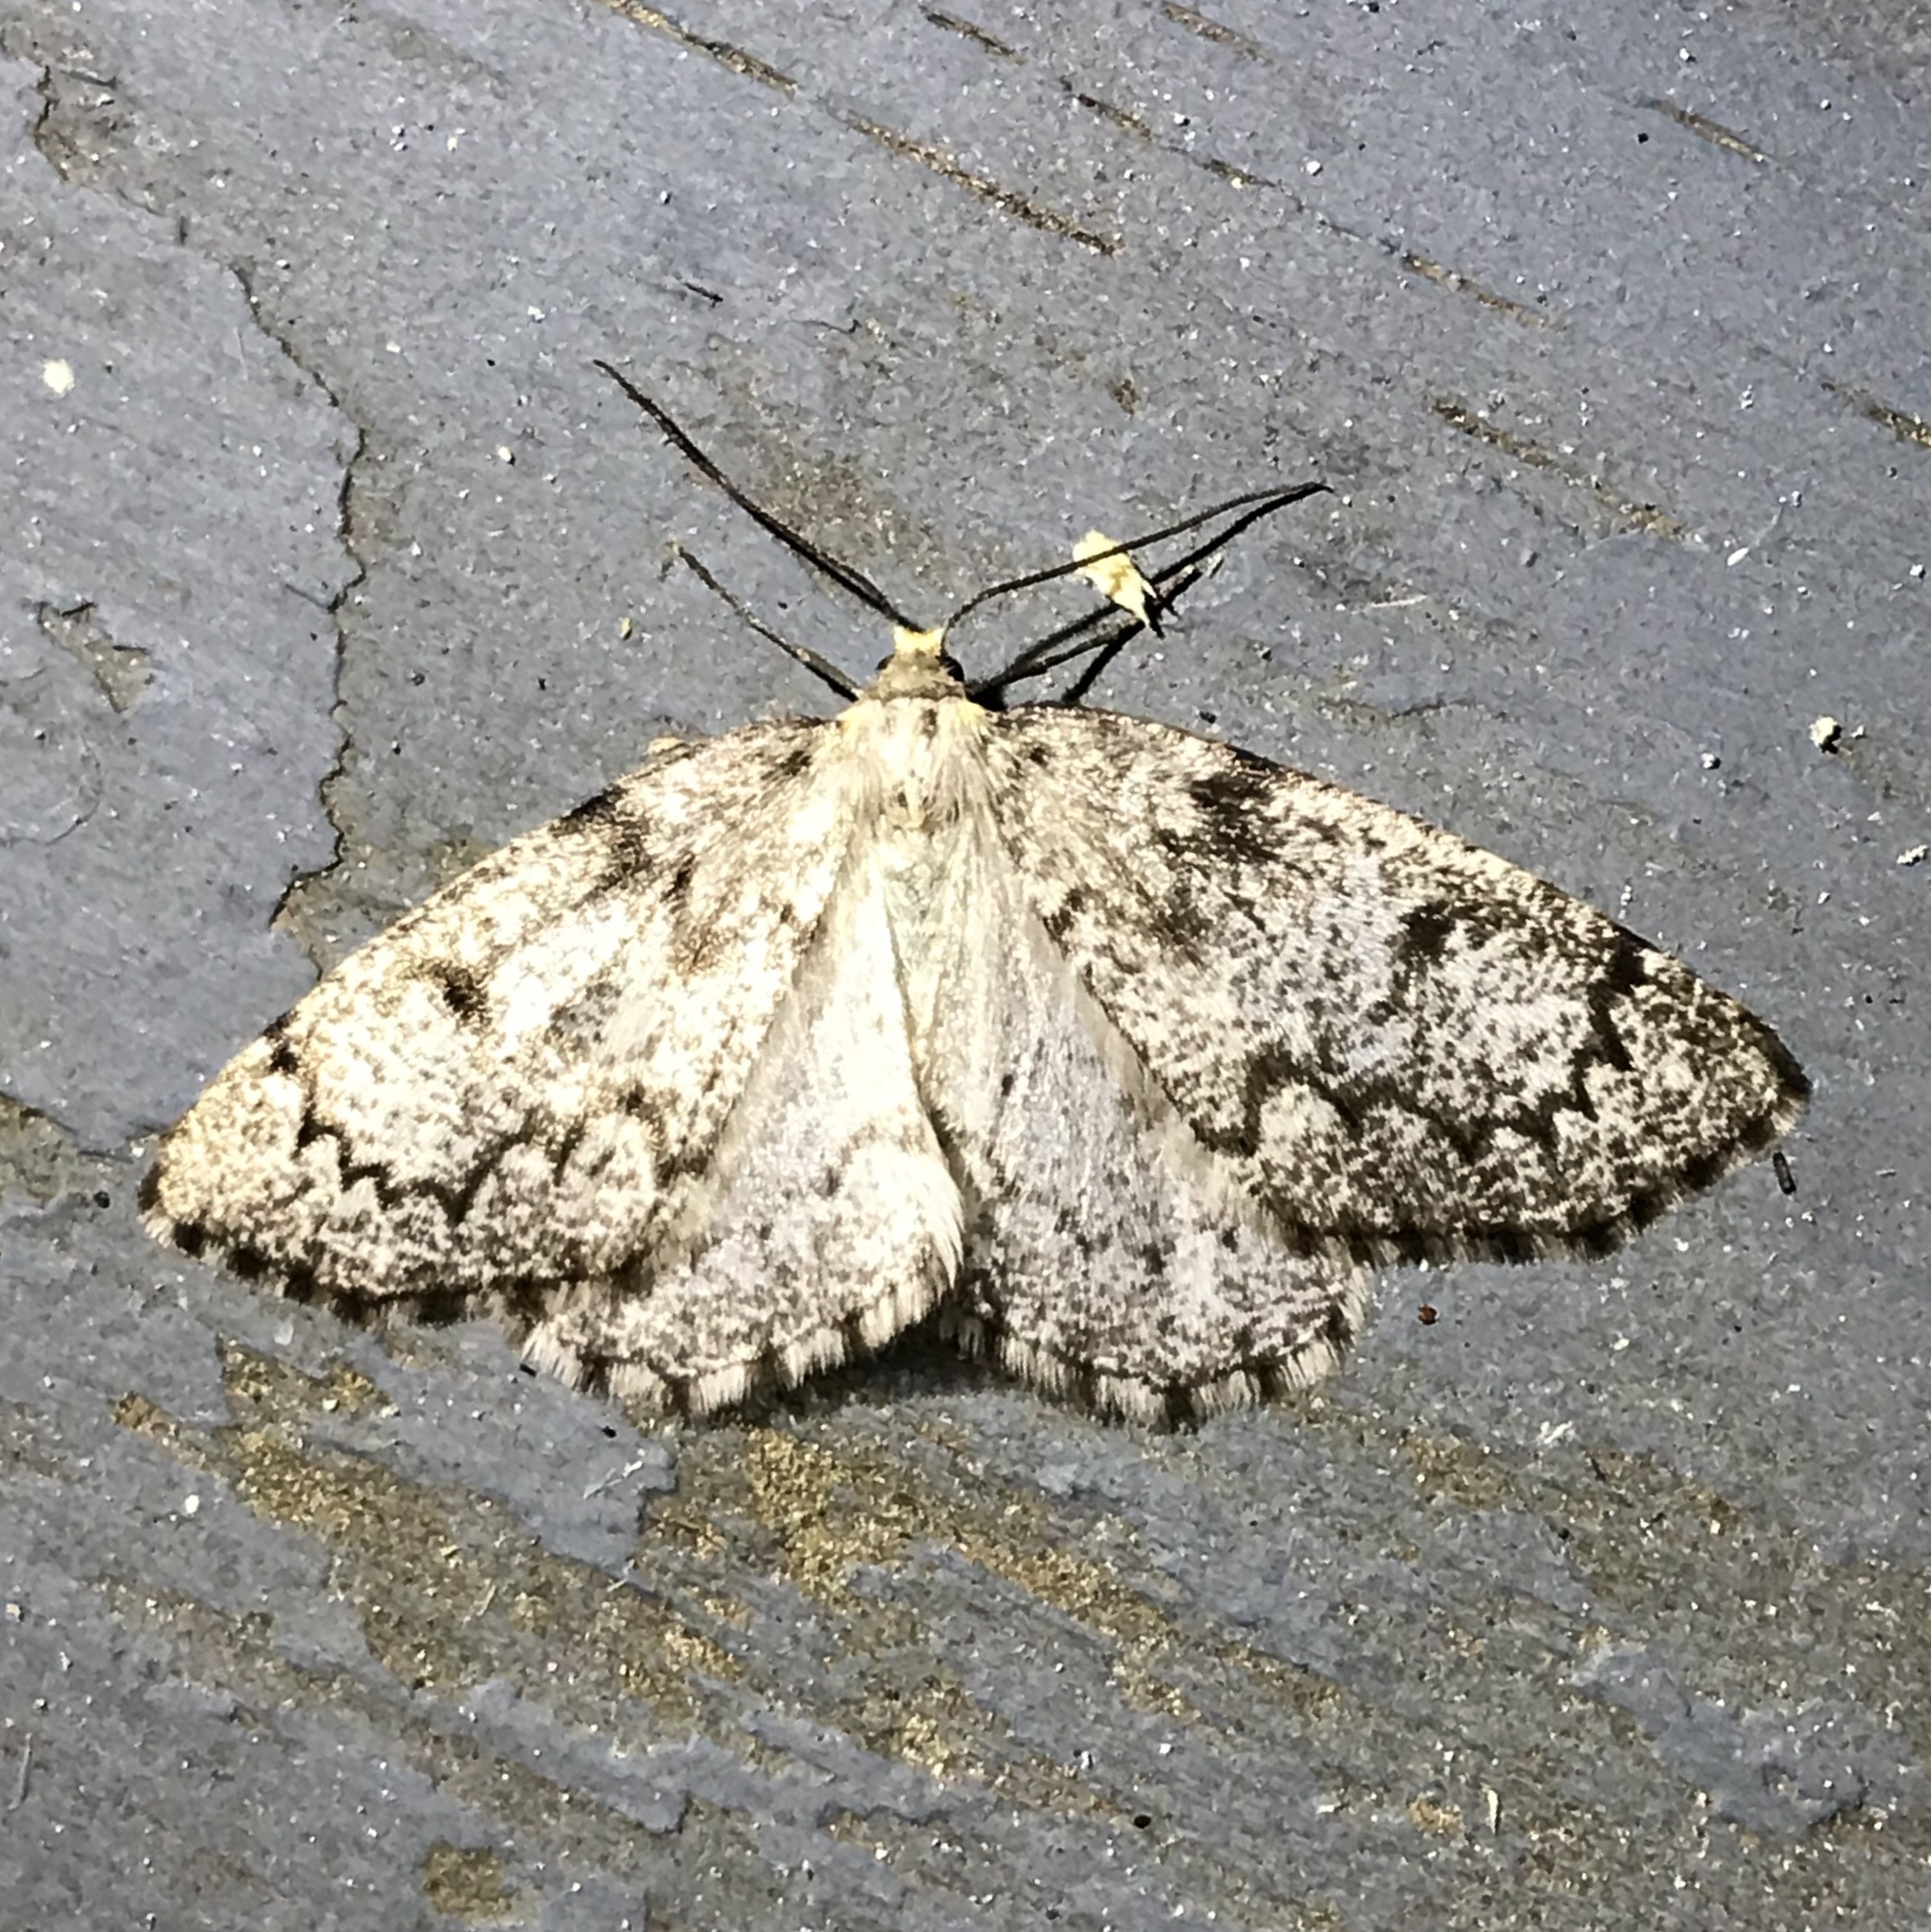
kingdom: Animalia
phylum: Arthropoda
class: Insecta
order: Lepidoptera
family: Geometridae
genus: Nepytia
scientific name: Nepytia canosaria
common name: False hemlock looper
